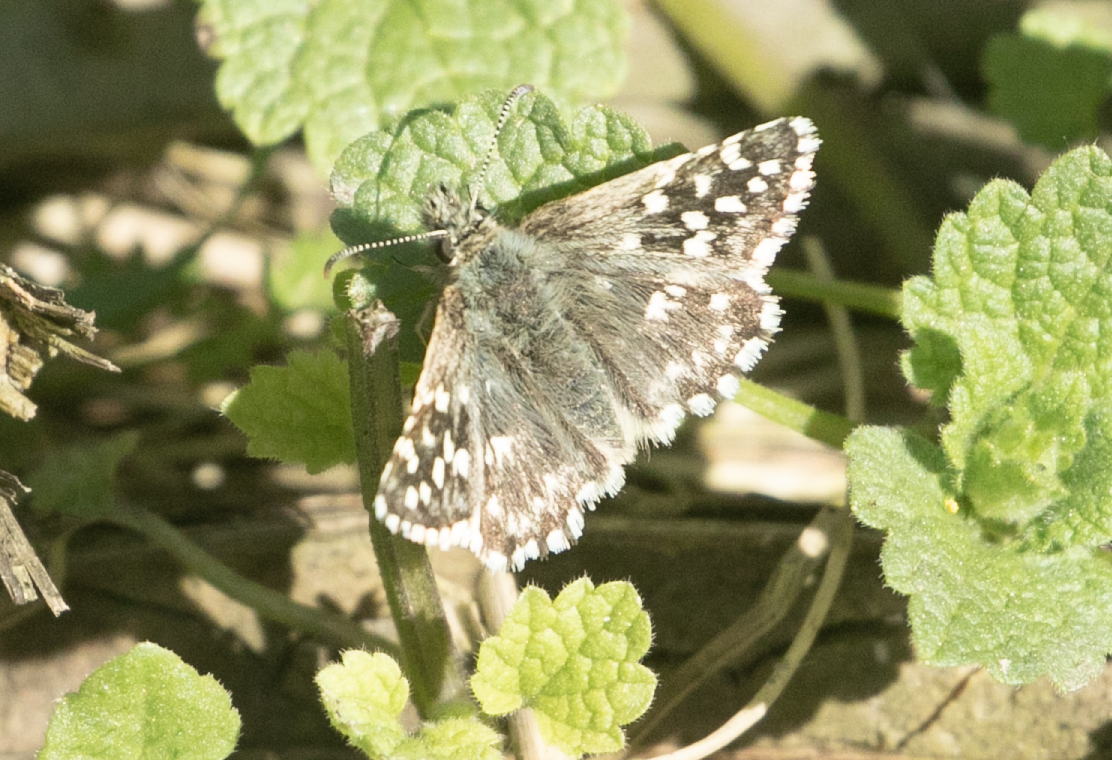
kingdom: Animalia
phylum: Arthropoda
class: Insecta
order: Lepidoptera
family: Hesperiidae
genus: Pyrgus
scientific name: Pyrgus malvoides
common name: Southern grizzled skipper
